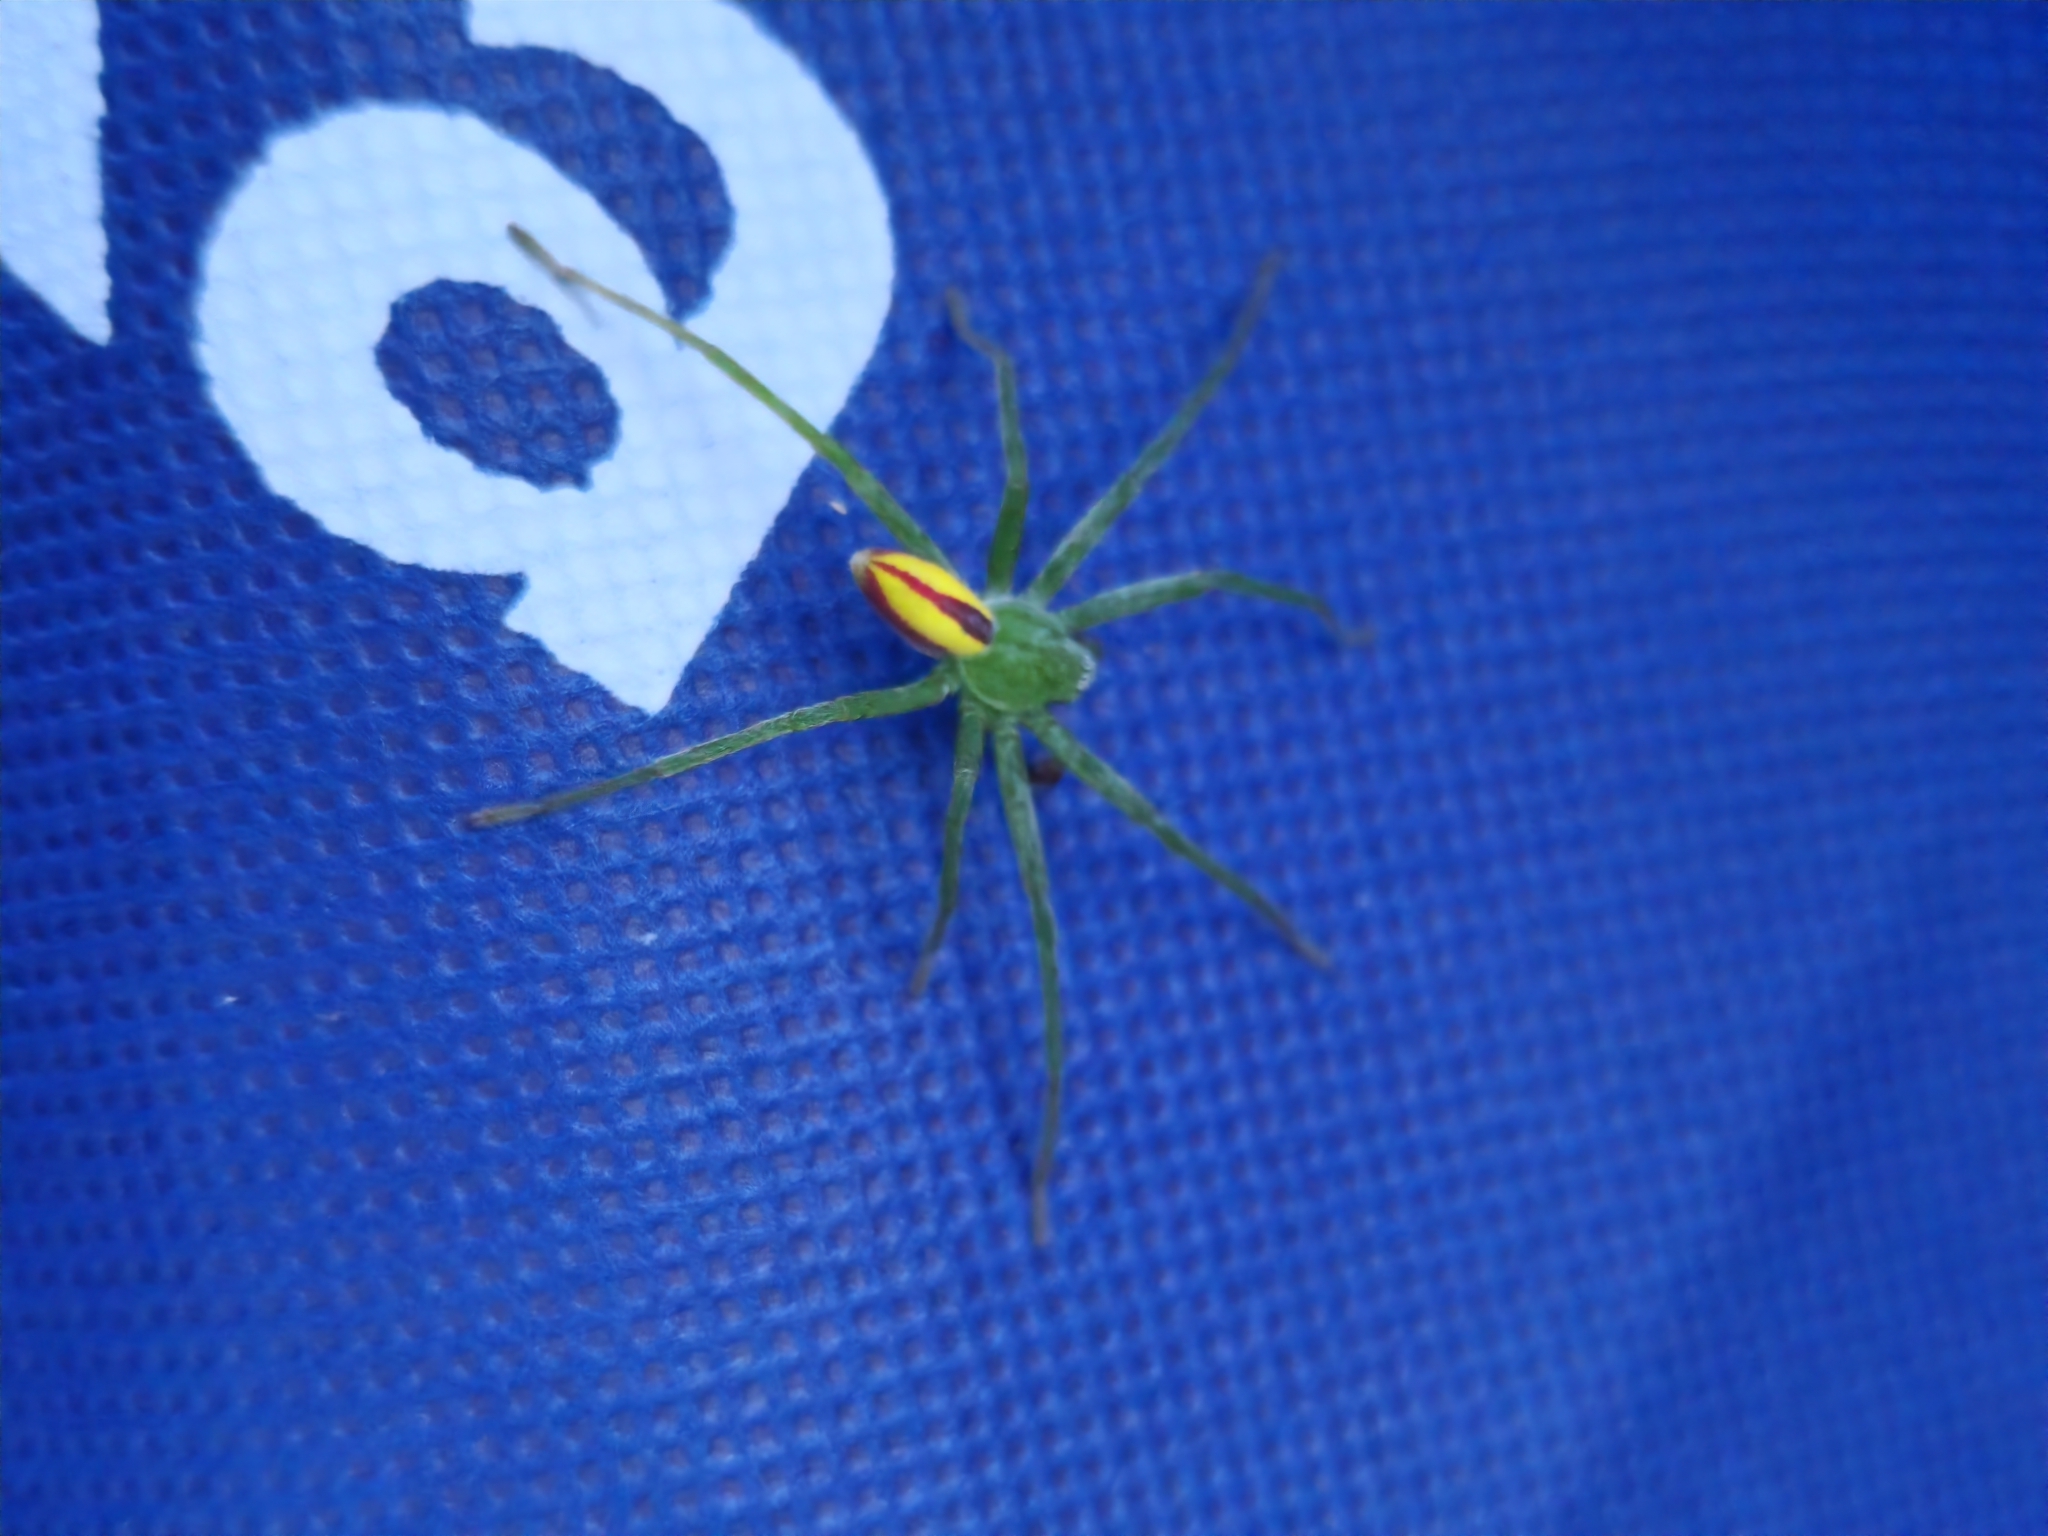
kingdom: Animalia
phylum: Arthropoda
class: Arachnida
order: Araneae
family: Sparassidae
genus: Micrommata
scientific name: Micrommata virescens
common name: Green spider
